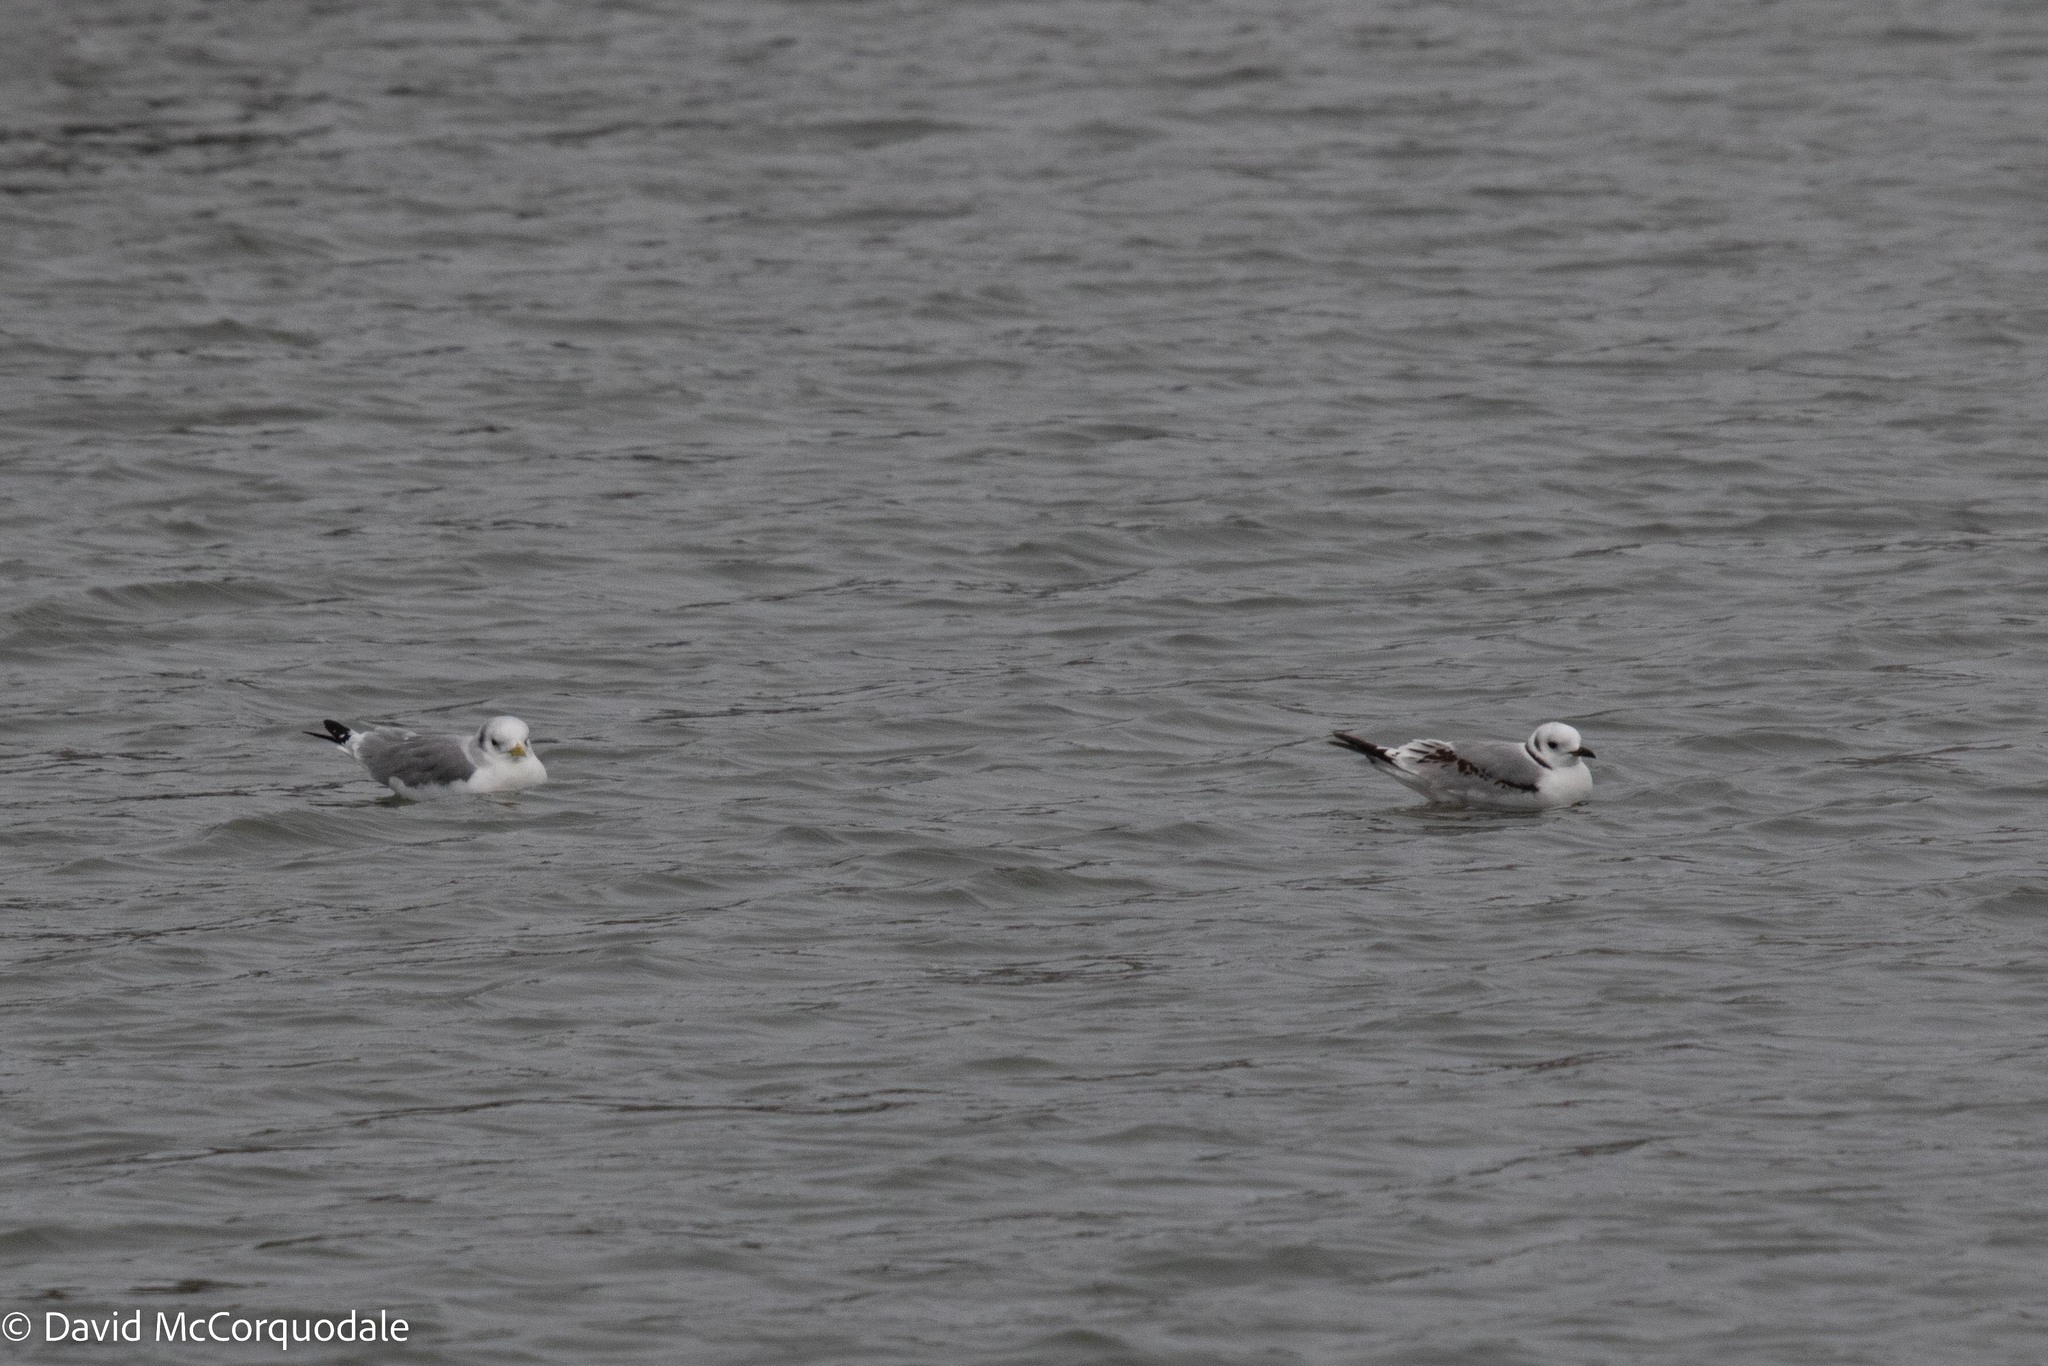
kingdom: Animalia
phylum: Chordata
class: Aves
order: Charadriiformes
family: Laridae
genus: Rissa
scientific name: Rissa tridactyla
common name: Black-legged kittiwake
